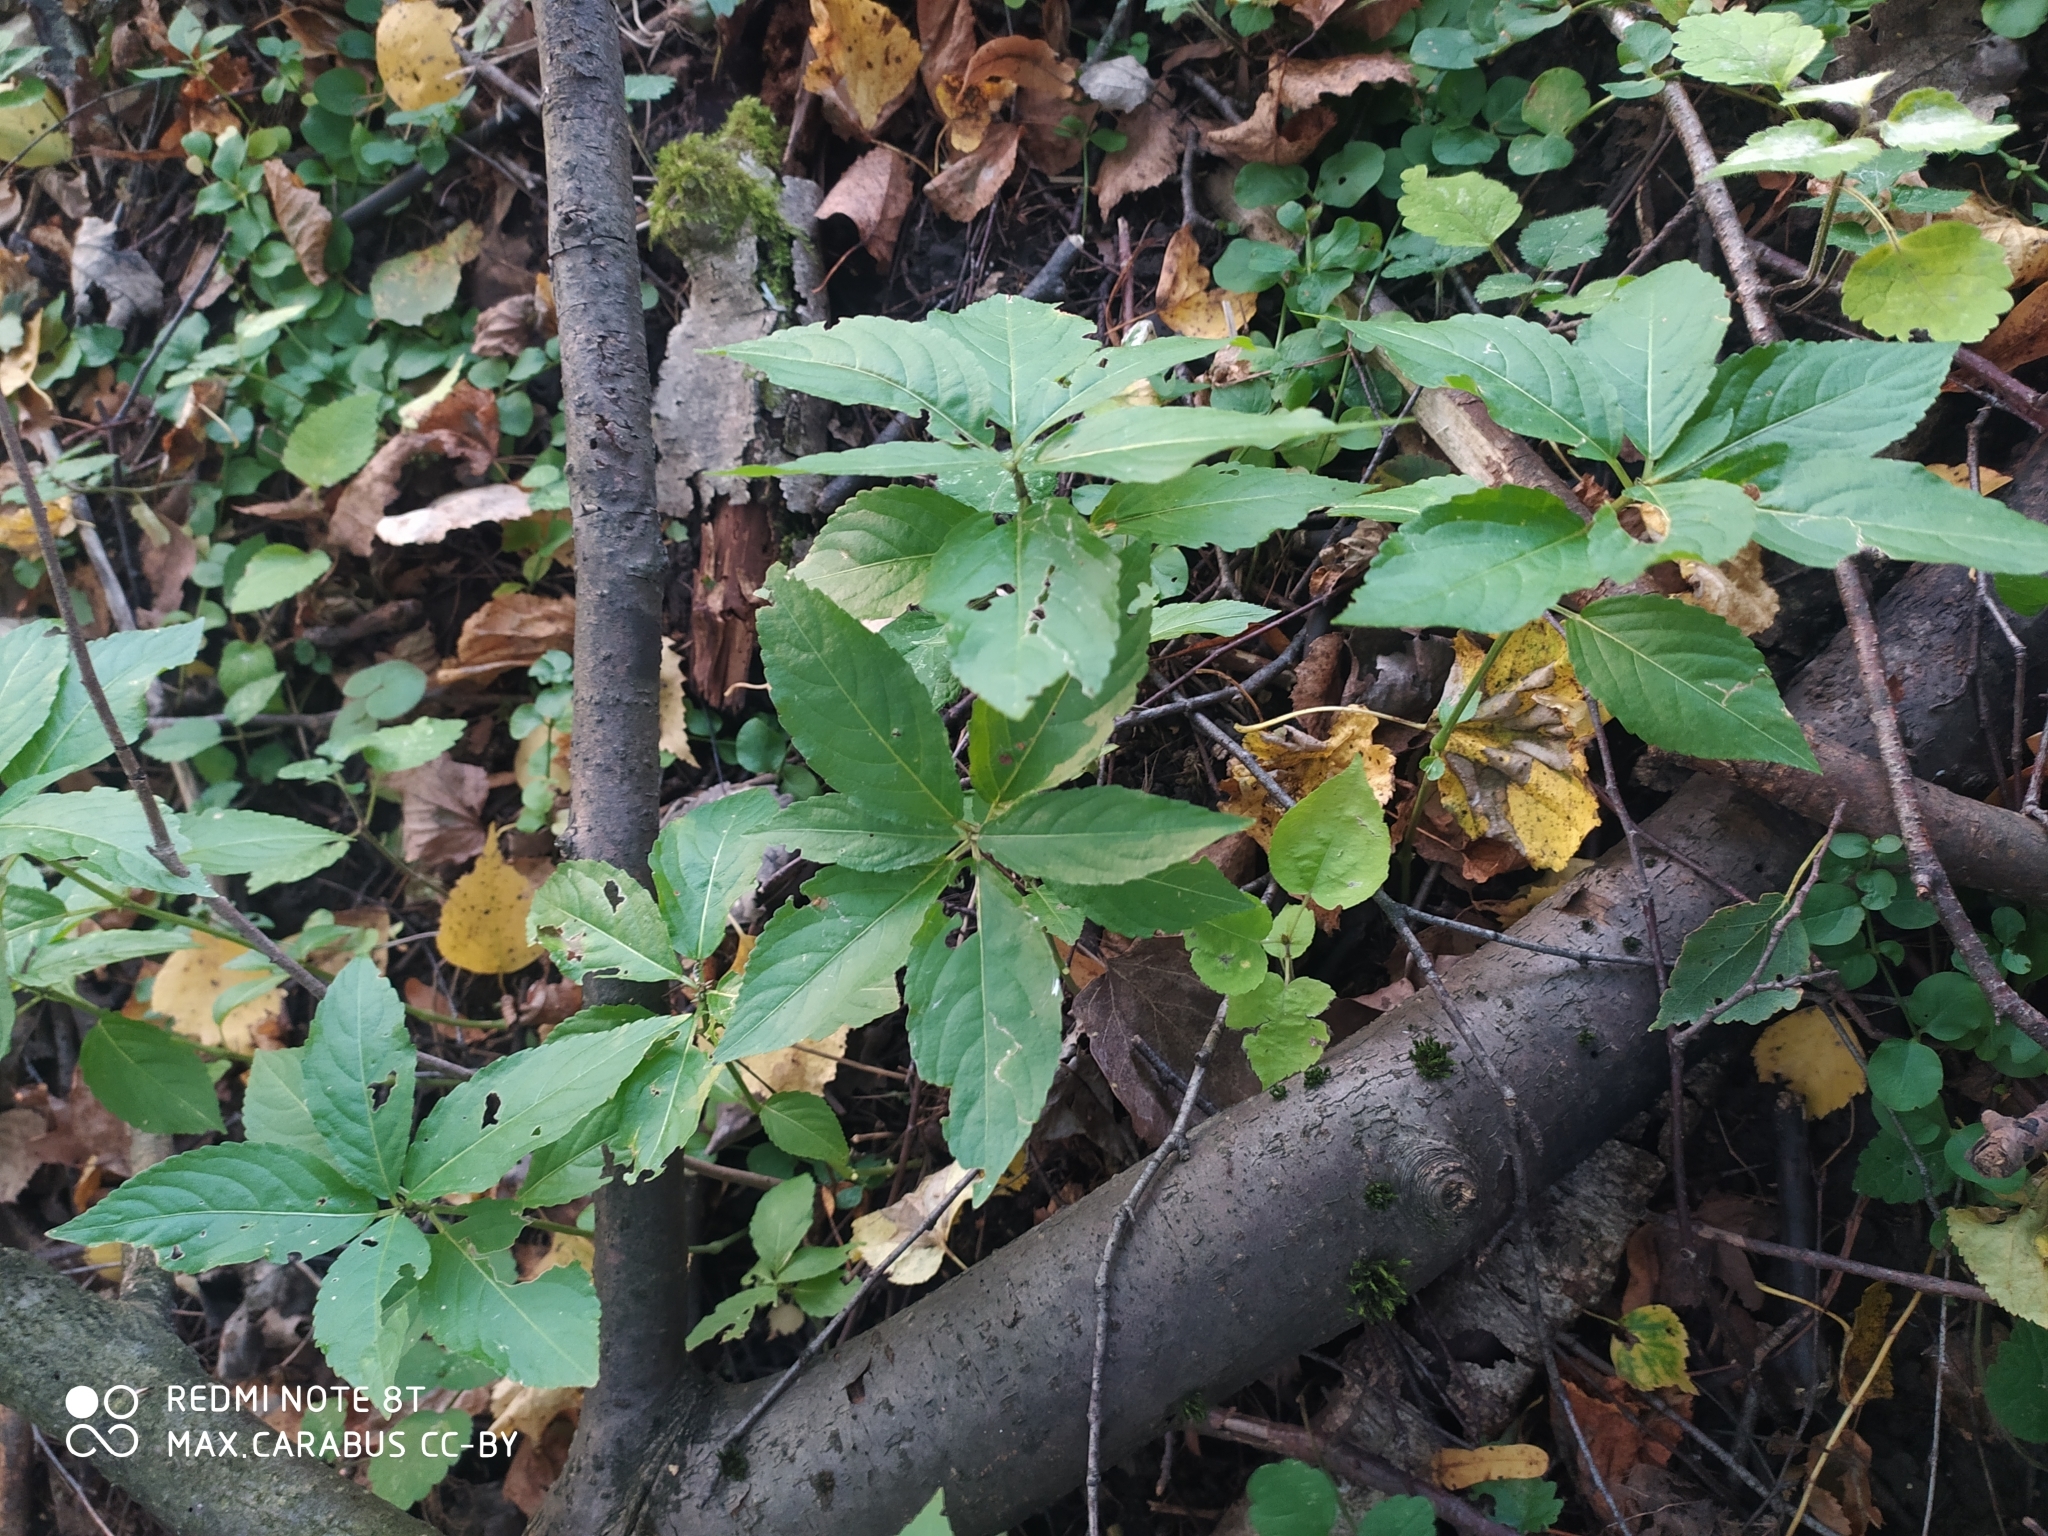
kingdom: Plantae
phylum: Tracheophyta
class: Magnoliopsida
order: Malpighiales
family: Euphorbiaceae
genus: Mercurialis
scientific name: Mercurialis perennis
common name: Dog mercury
